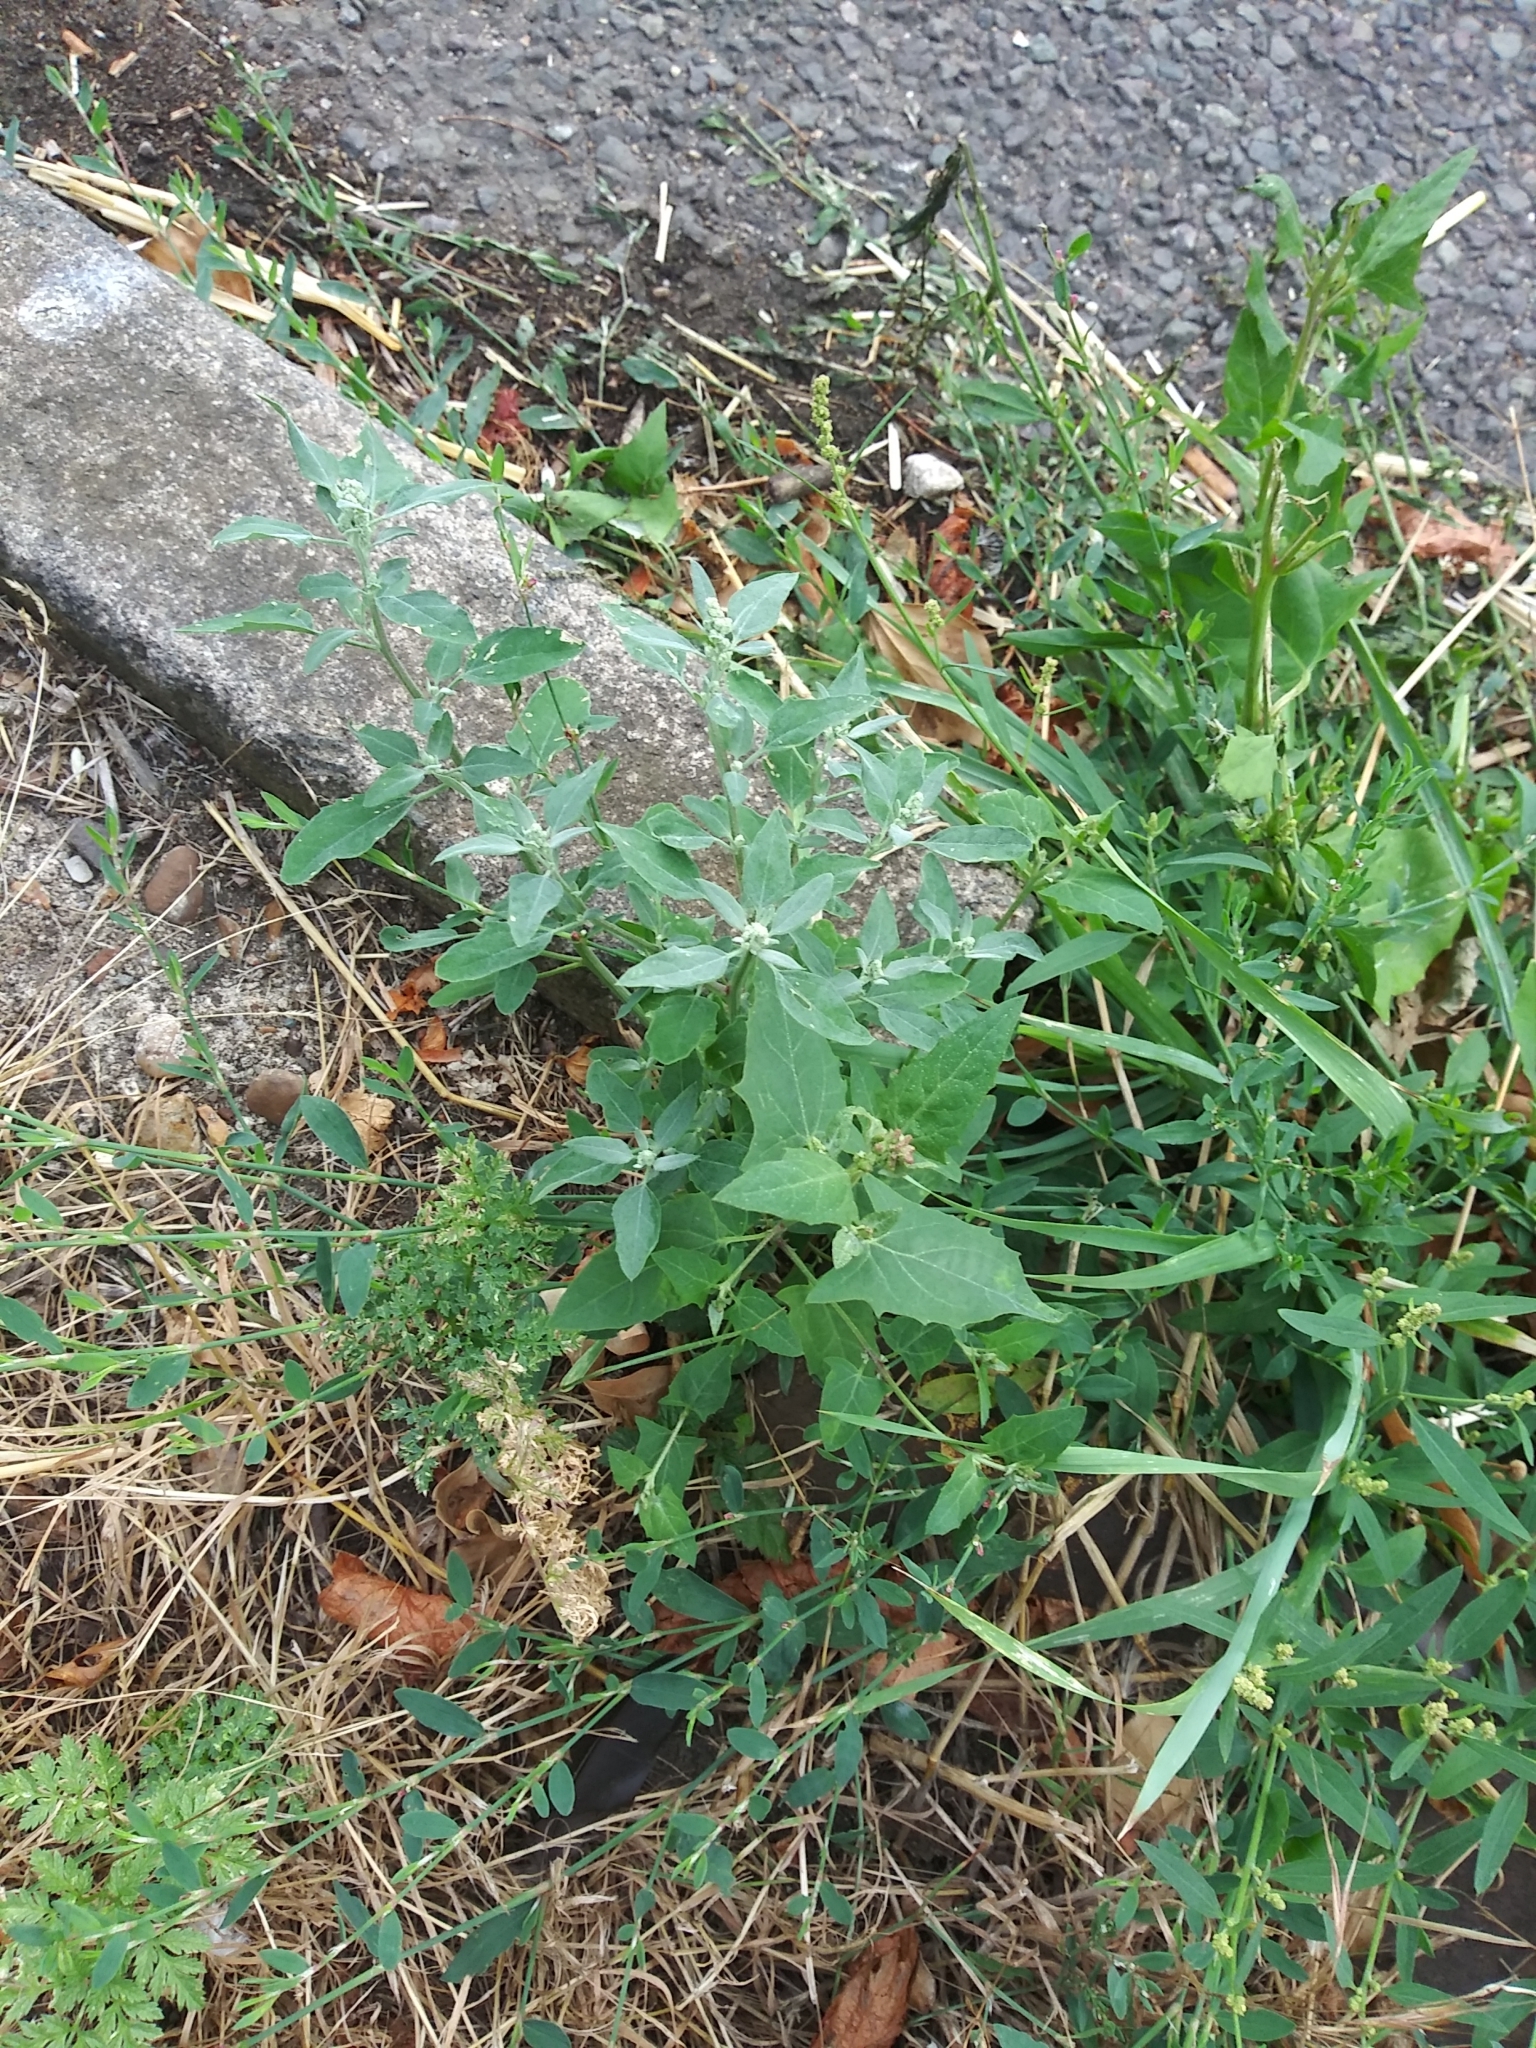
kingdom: Plantae
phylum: Tracheophyta
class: Magnoliopsida
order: Caryophyllales
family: Amaranthaceae
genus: Chenopodium
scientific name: Chenopodium album
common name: Fat-hen
